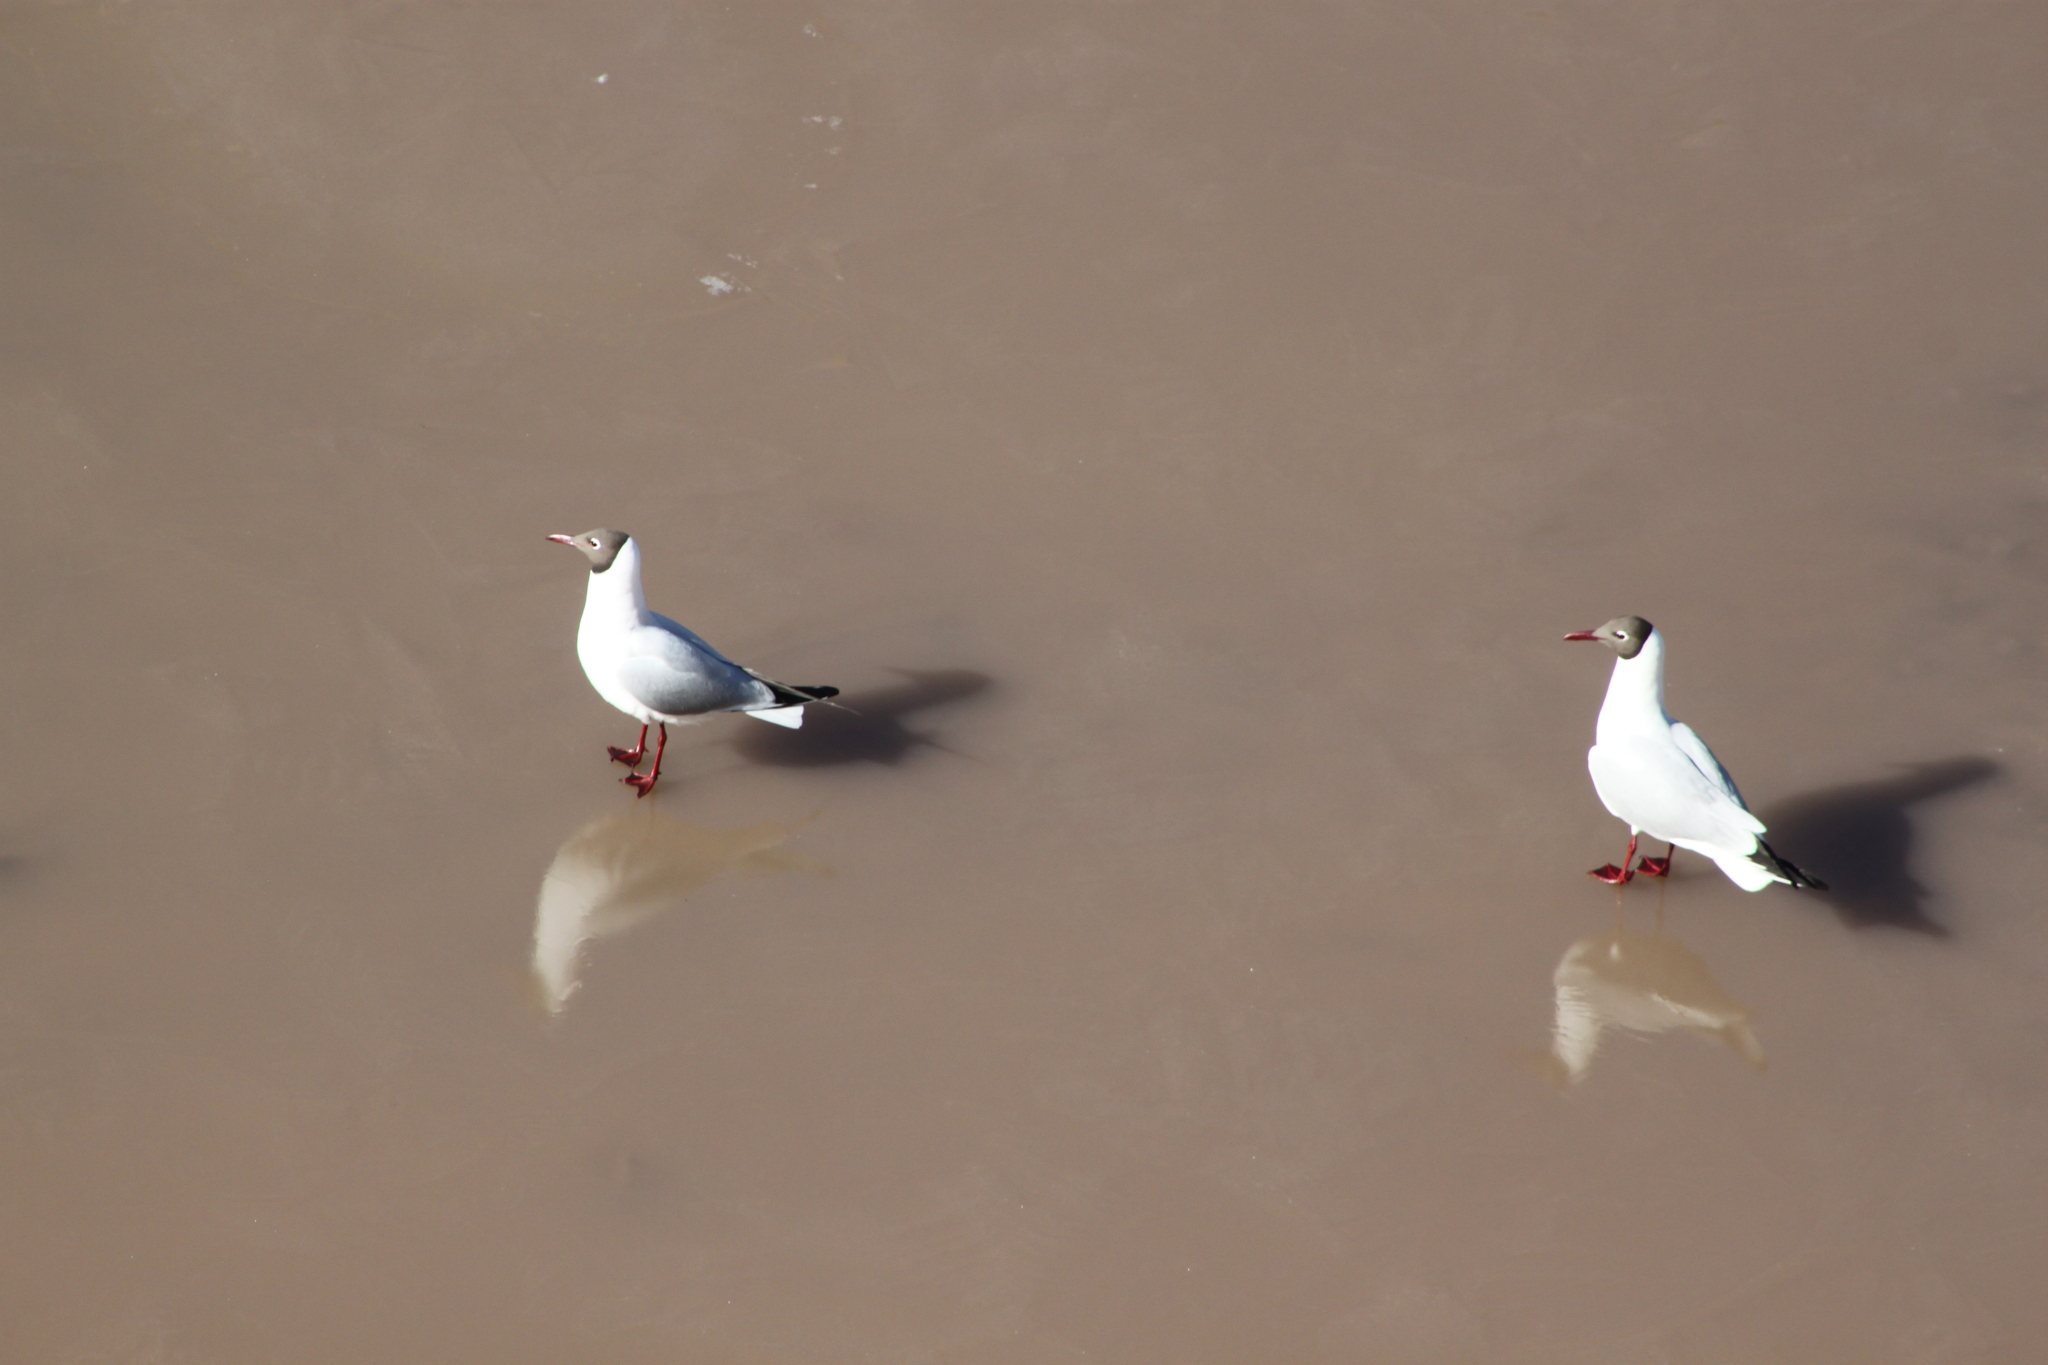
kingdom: Animalia
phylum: Chordata
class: Aves
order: Charadriiformes
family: Laridae
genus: Chroicocephalus
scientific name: Chroicocephalus ridibundus
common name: Black-headed gull
